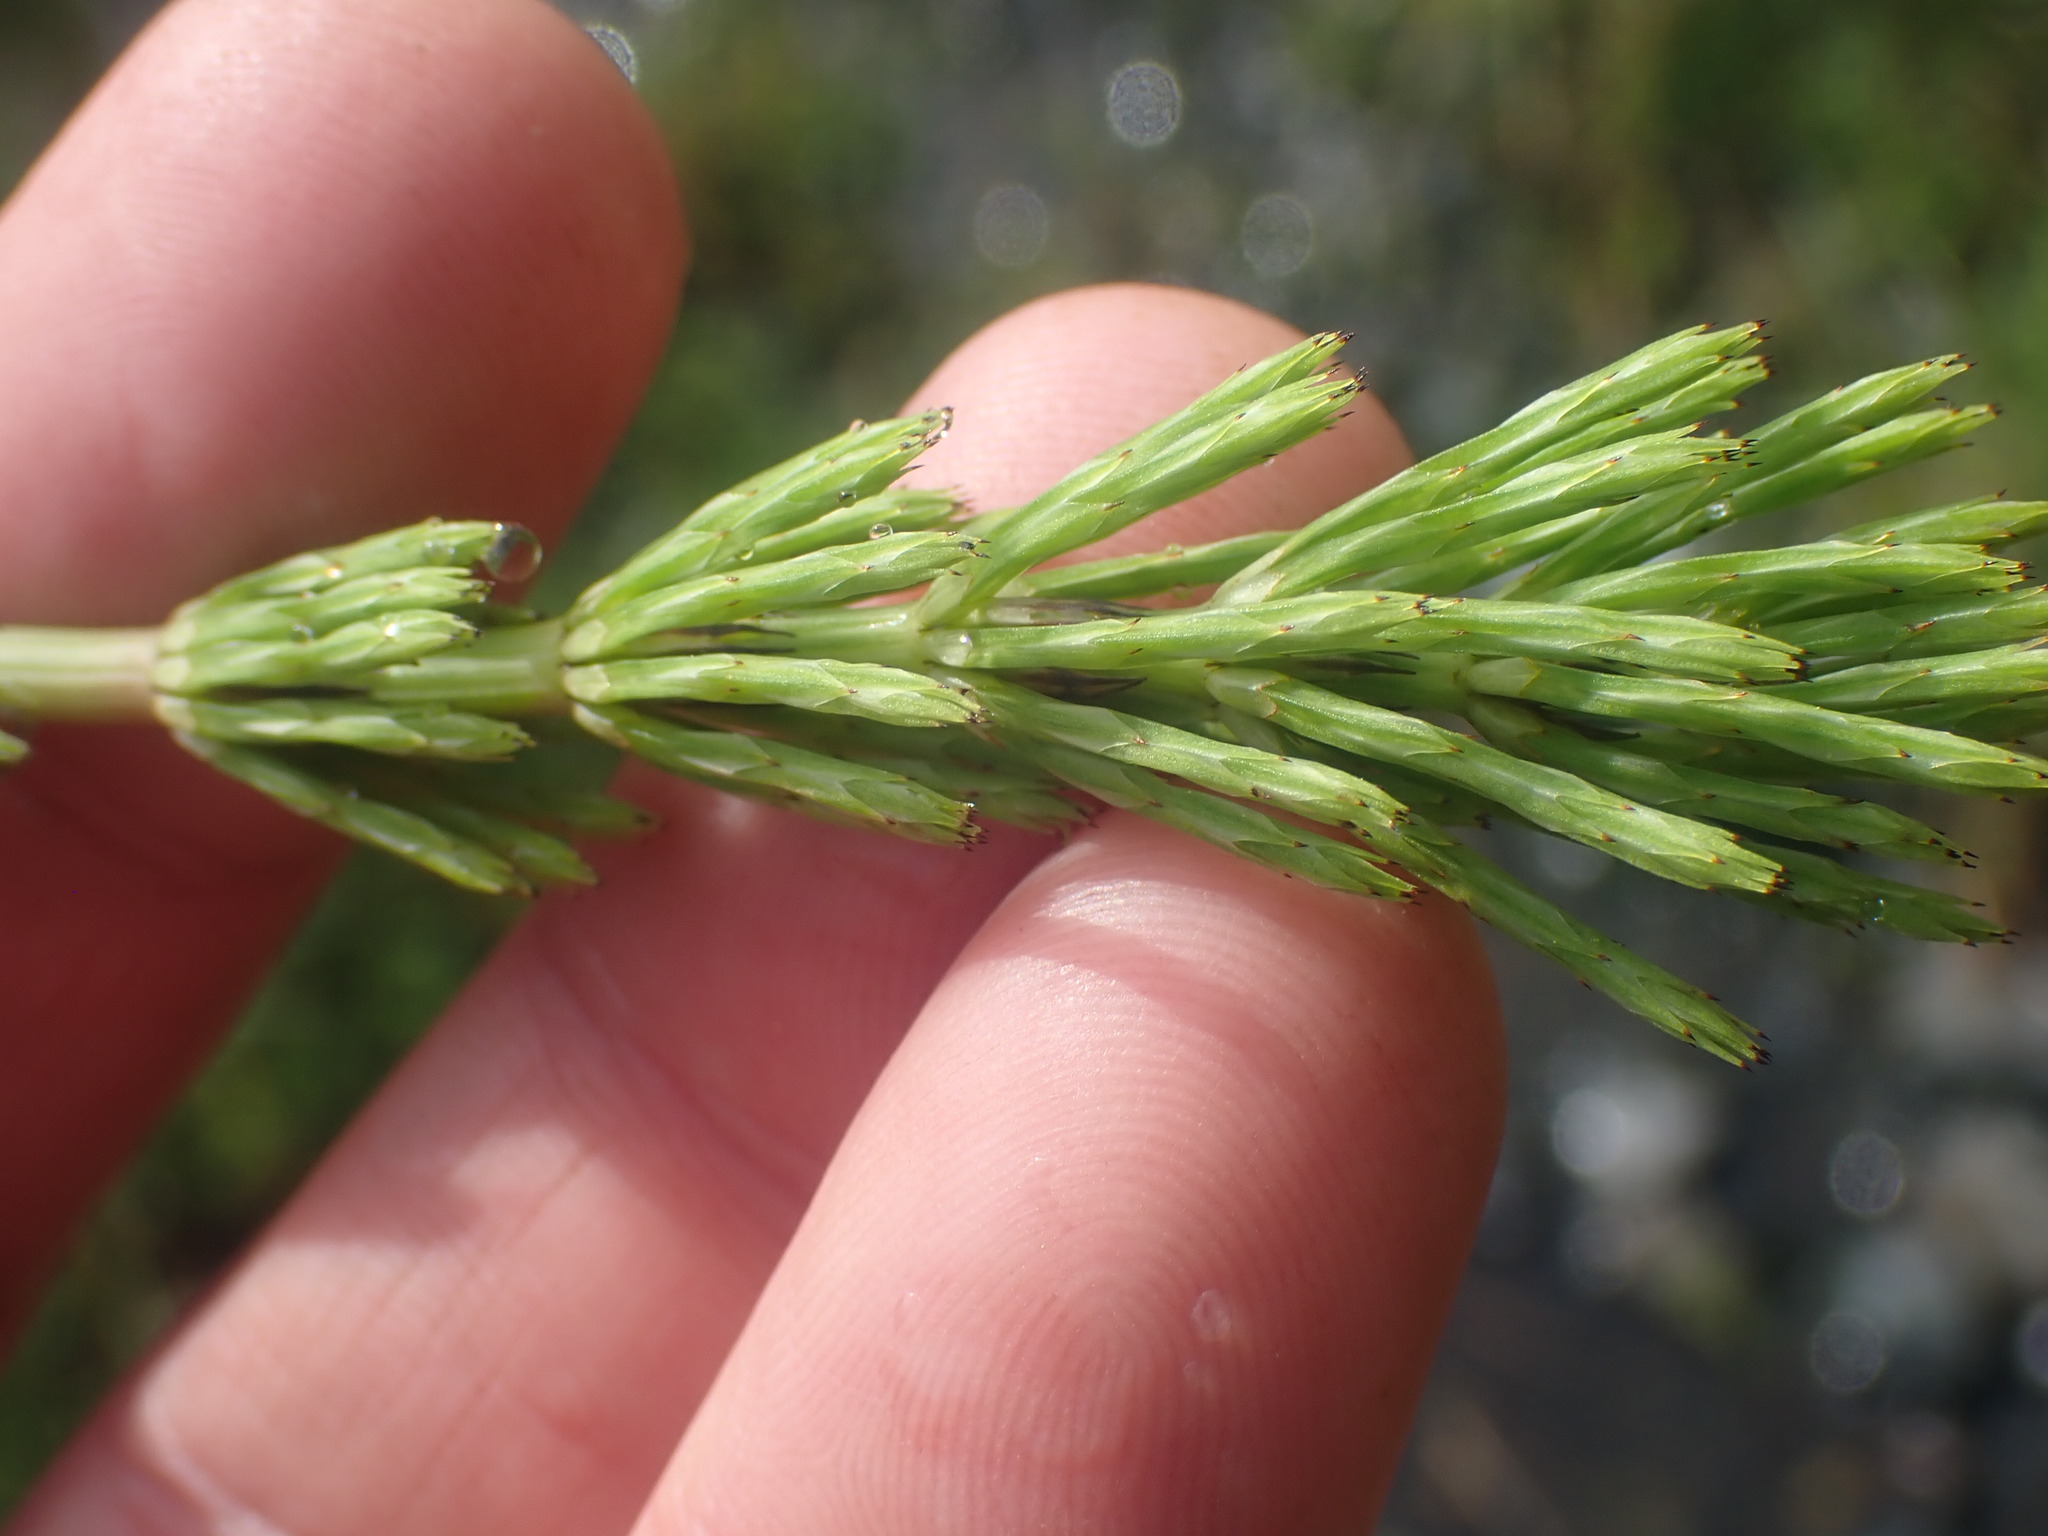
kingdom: Plantae
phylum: Tracheophyta
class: Polypodiopsida
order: Equisetales
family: Equisetaceae
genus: Equisetum
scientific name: Equisetum arvense
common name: Field horsetail
